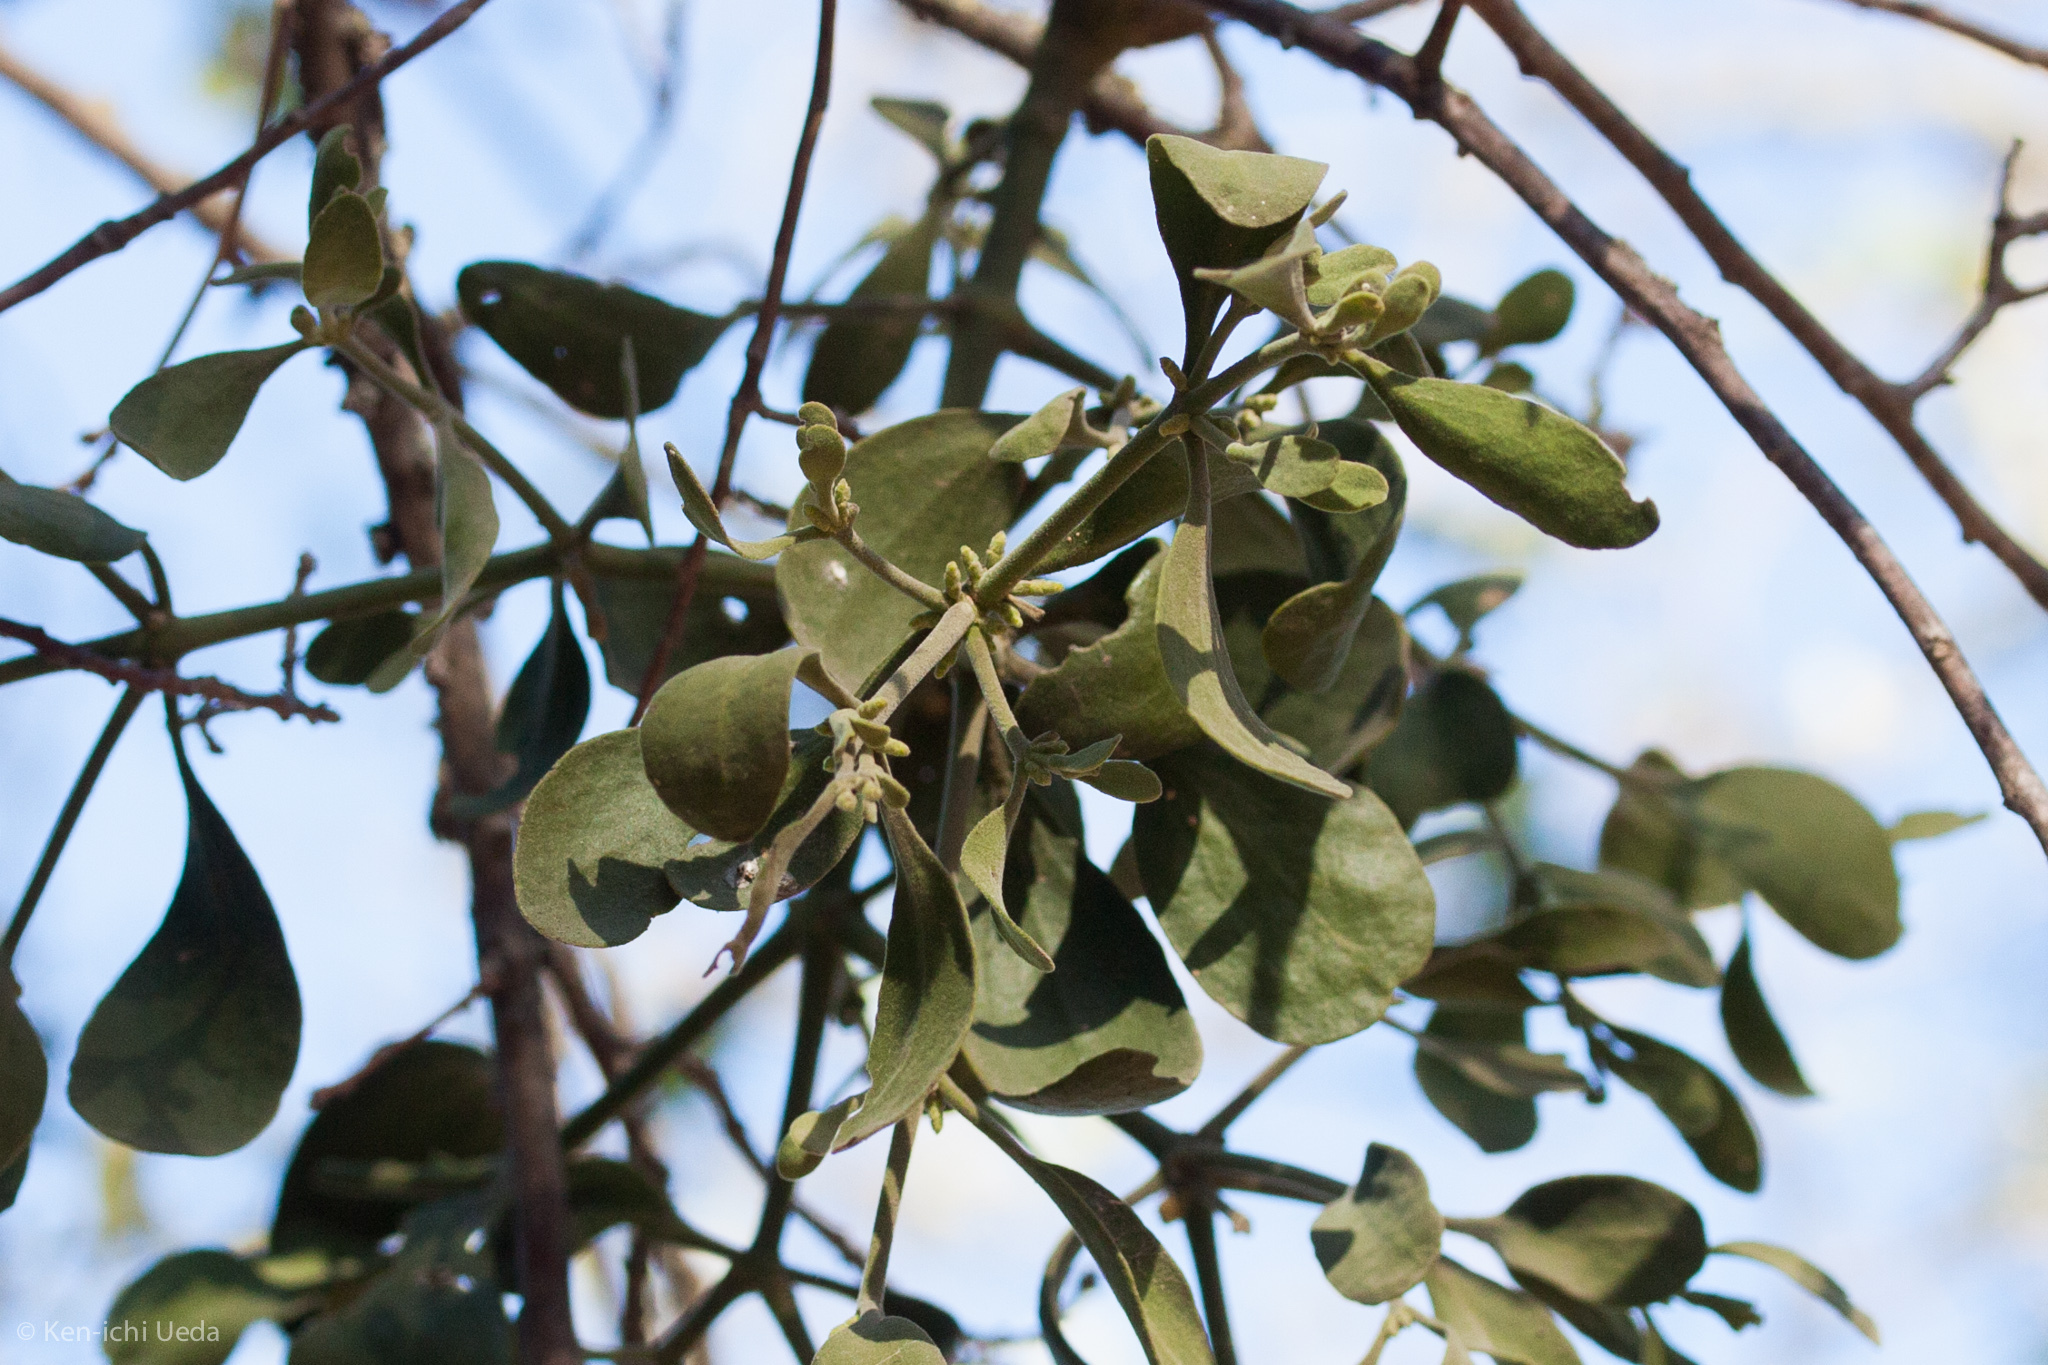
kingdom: Plantae
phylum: Tracheophyta
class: Magnoliopsida
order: Santalales
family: Viscaceae
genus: Phoradendron
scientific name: Phoradendron leucarpum
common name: Pacific mistletoe
